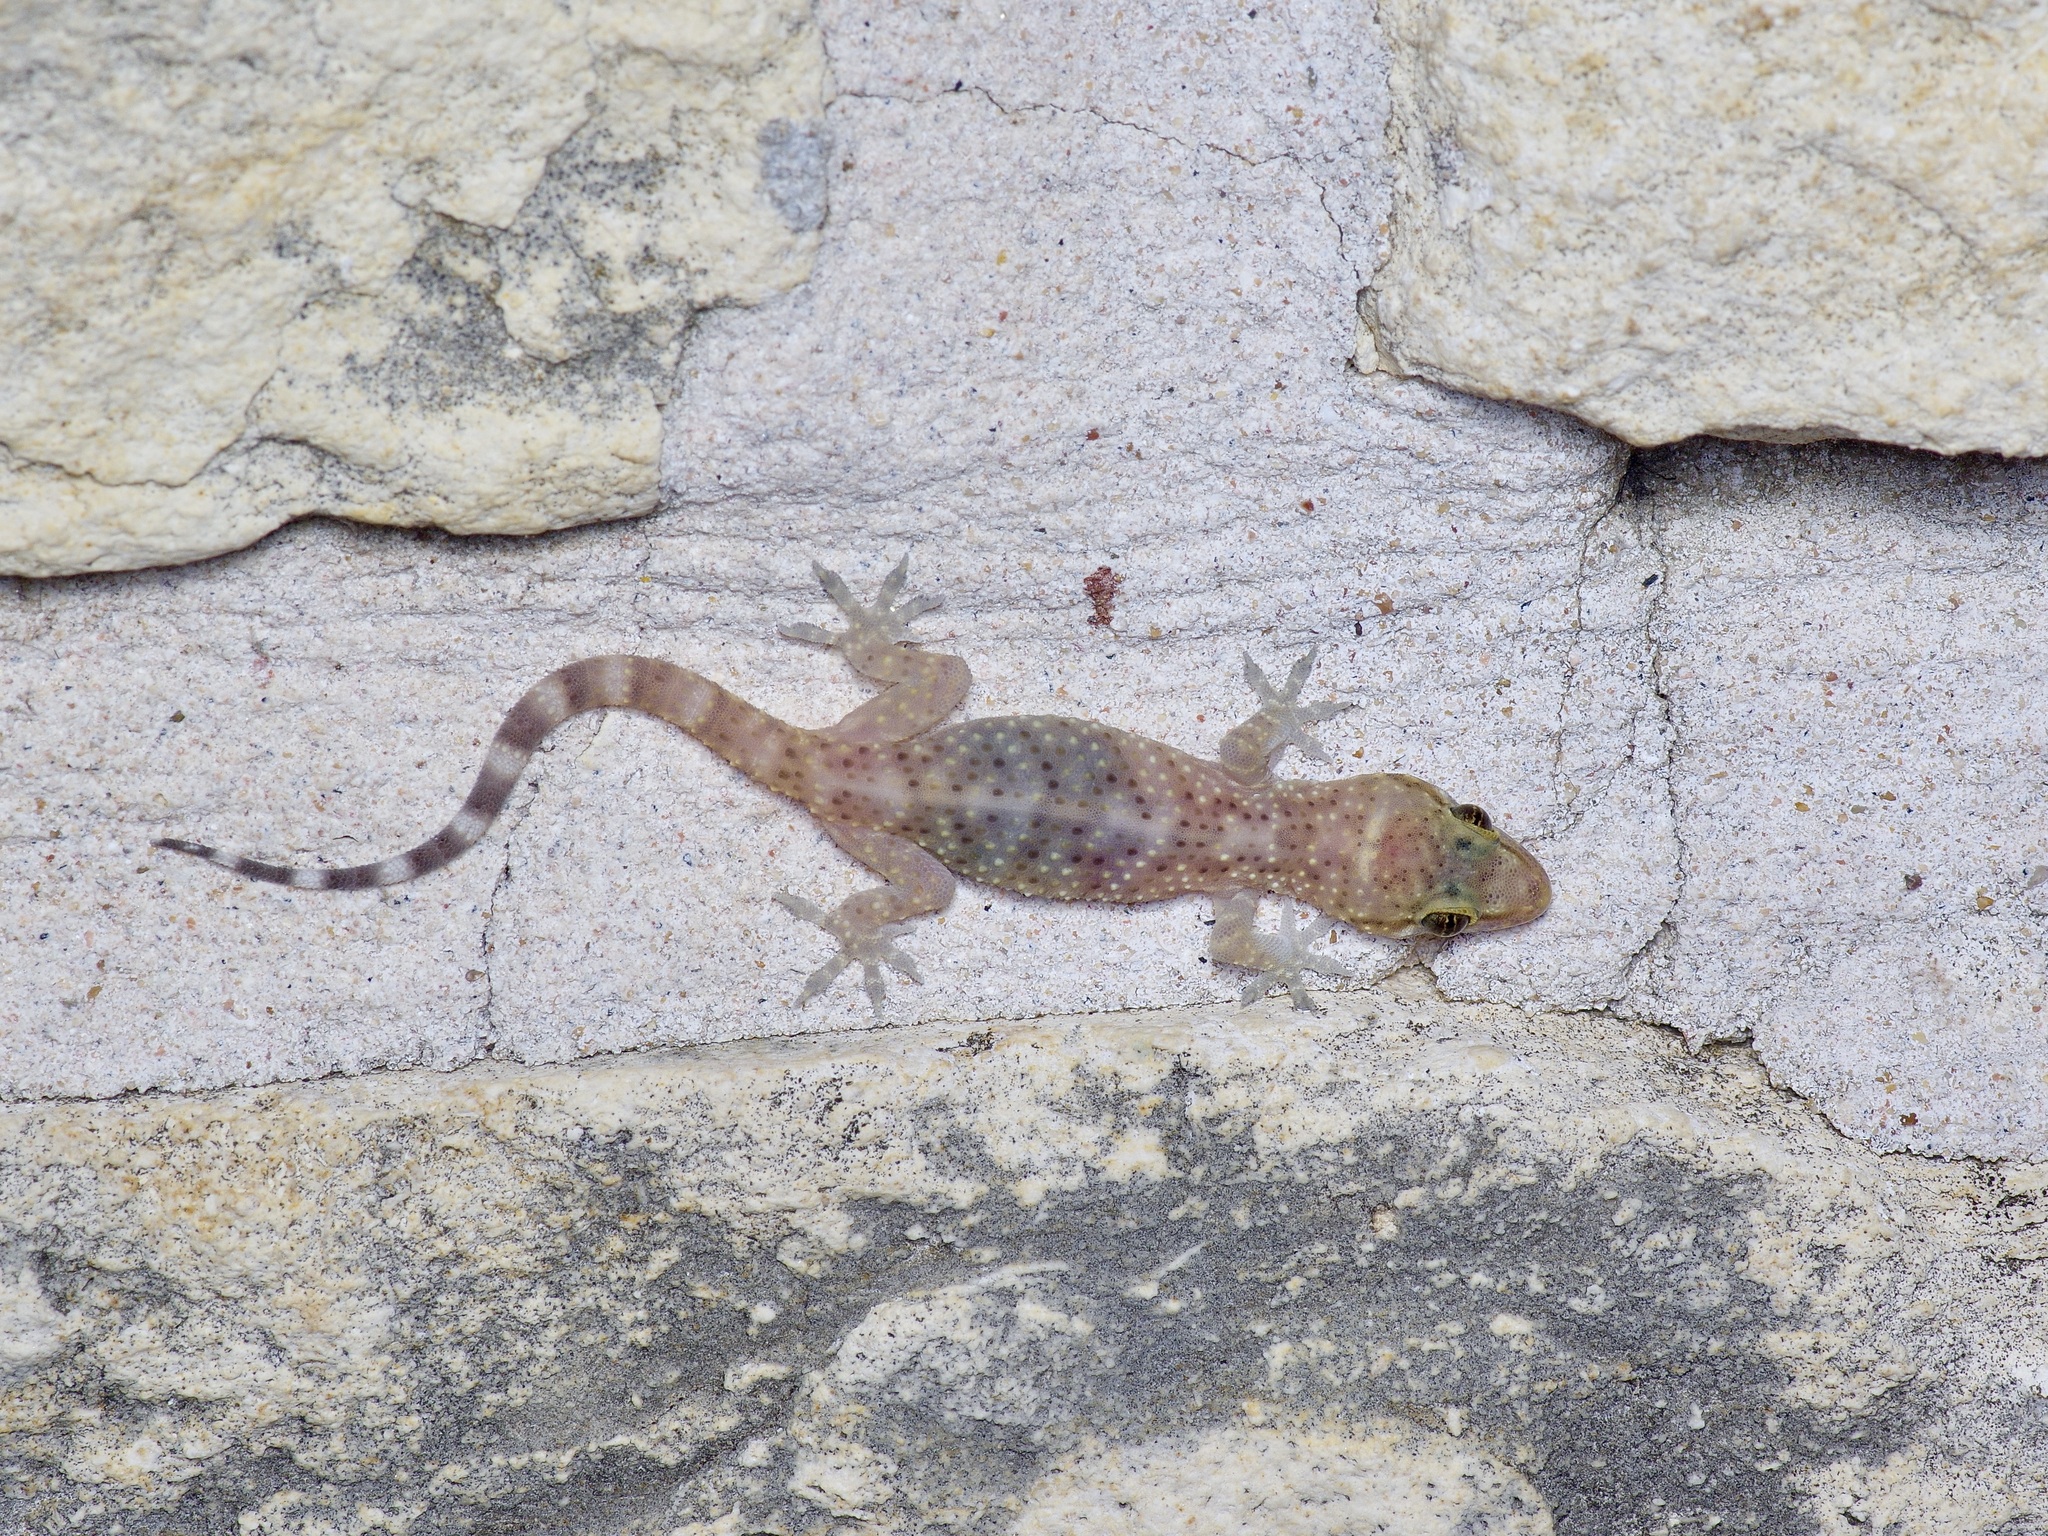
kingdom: Animalia
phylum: Chordata
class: Squamata
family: Gekkonidae
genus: Hemidactylus
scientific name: Hemidactylus turcicus
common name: Turkish gecko
